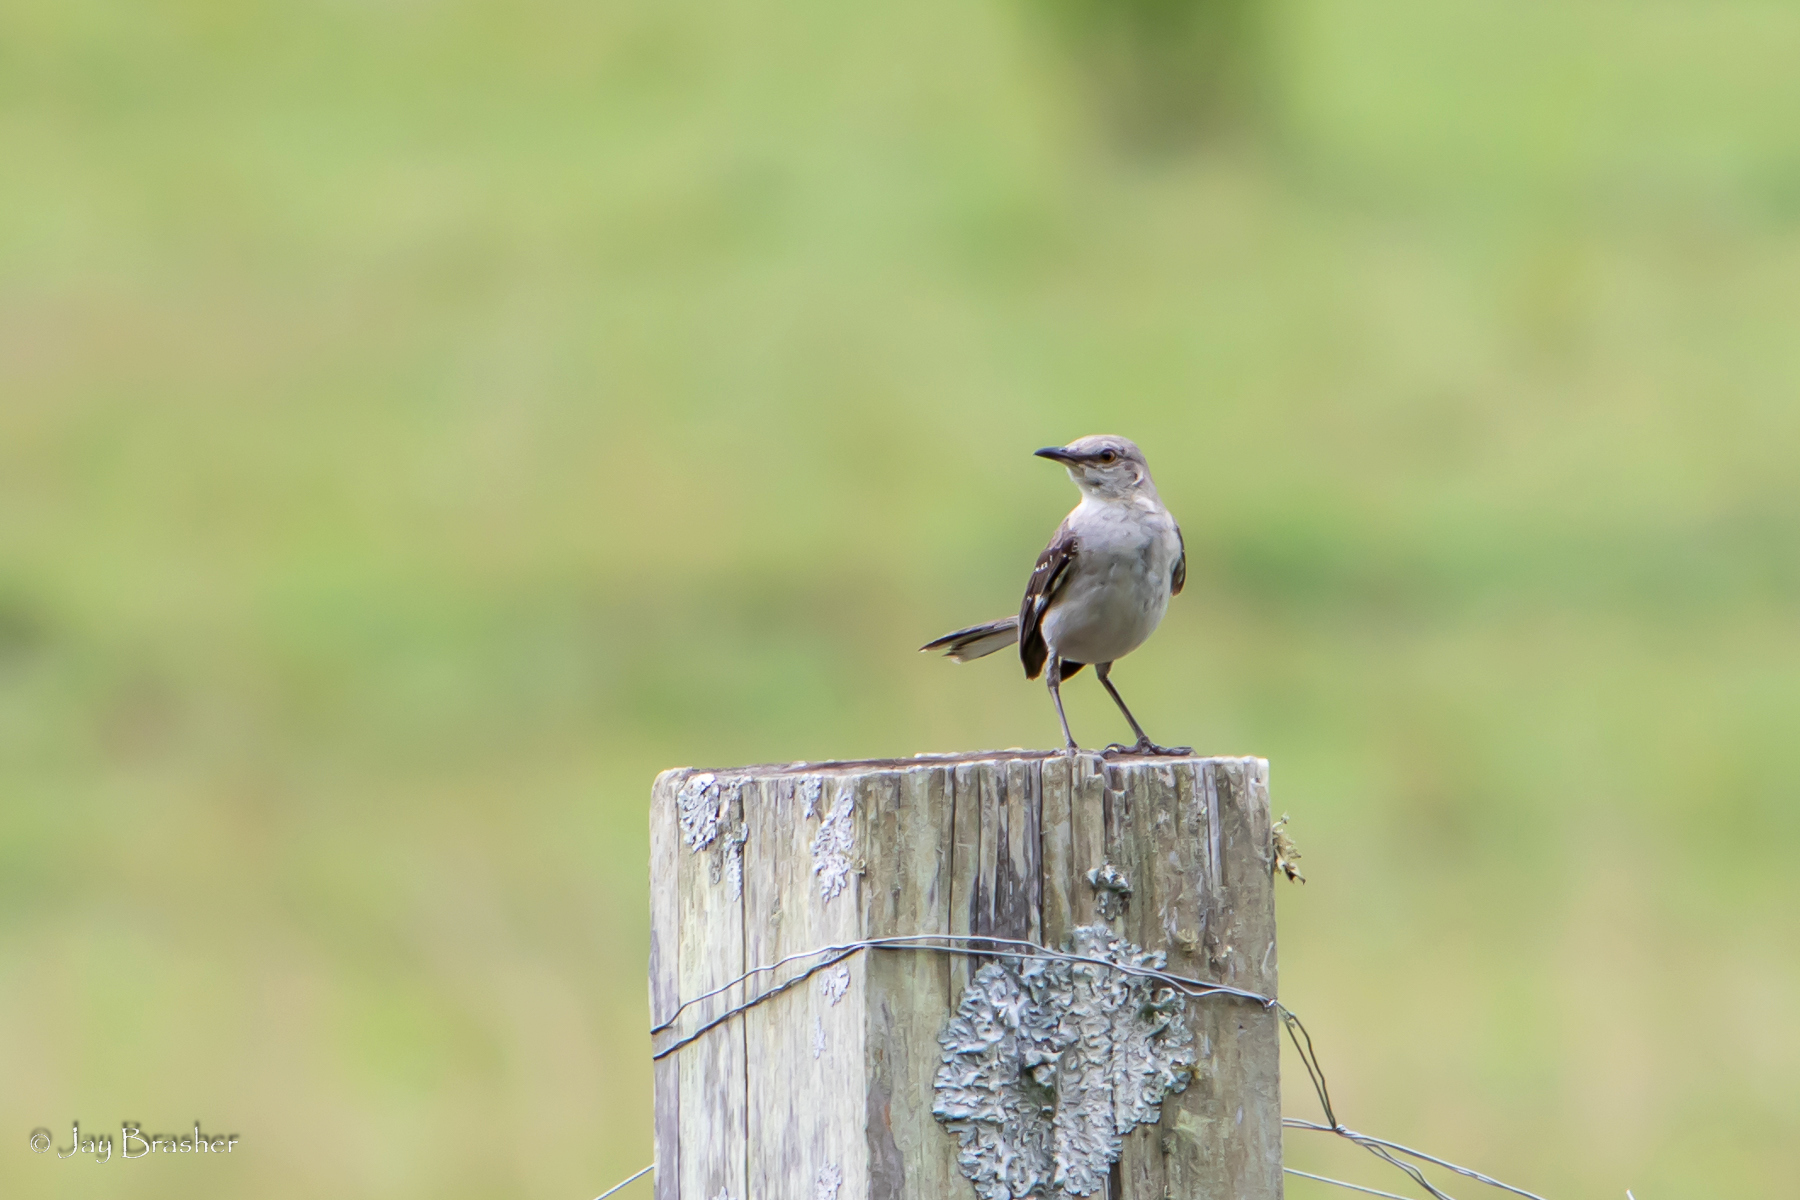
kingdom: Animalia
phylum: Chordata
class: Aves
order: Passeriformes
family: Mimidae
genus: Mimus
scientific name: Mimus polyglottos
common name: Northern mockingbird
